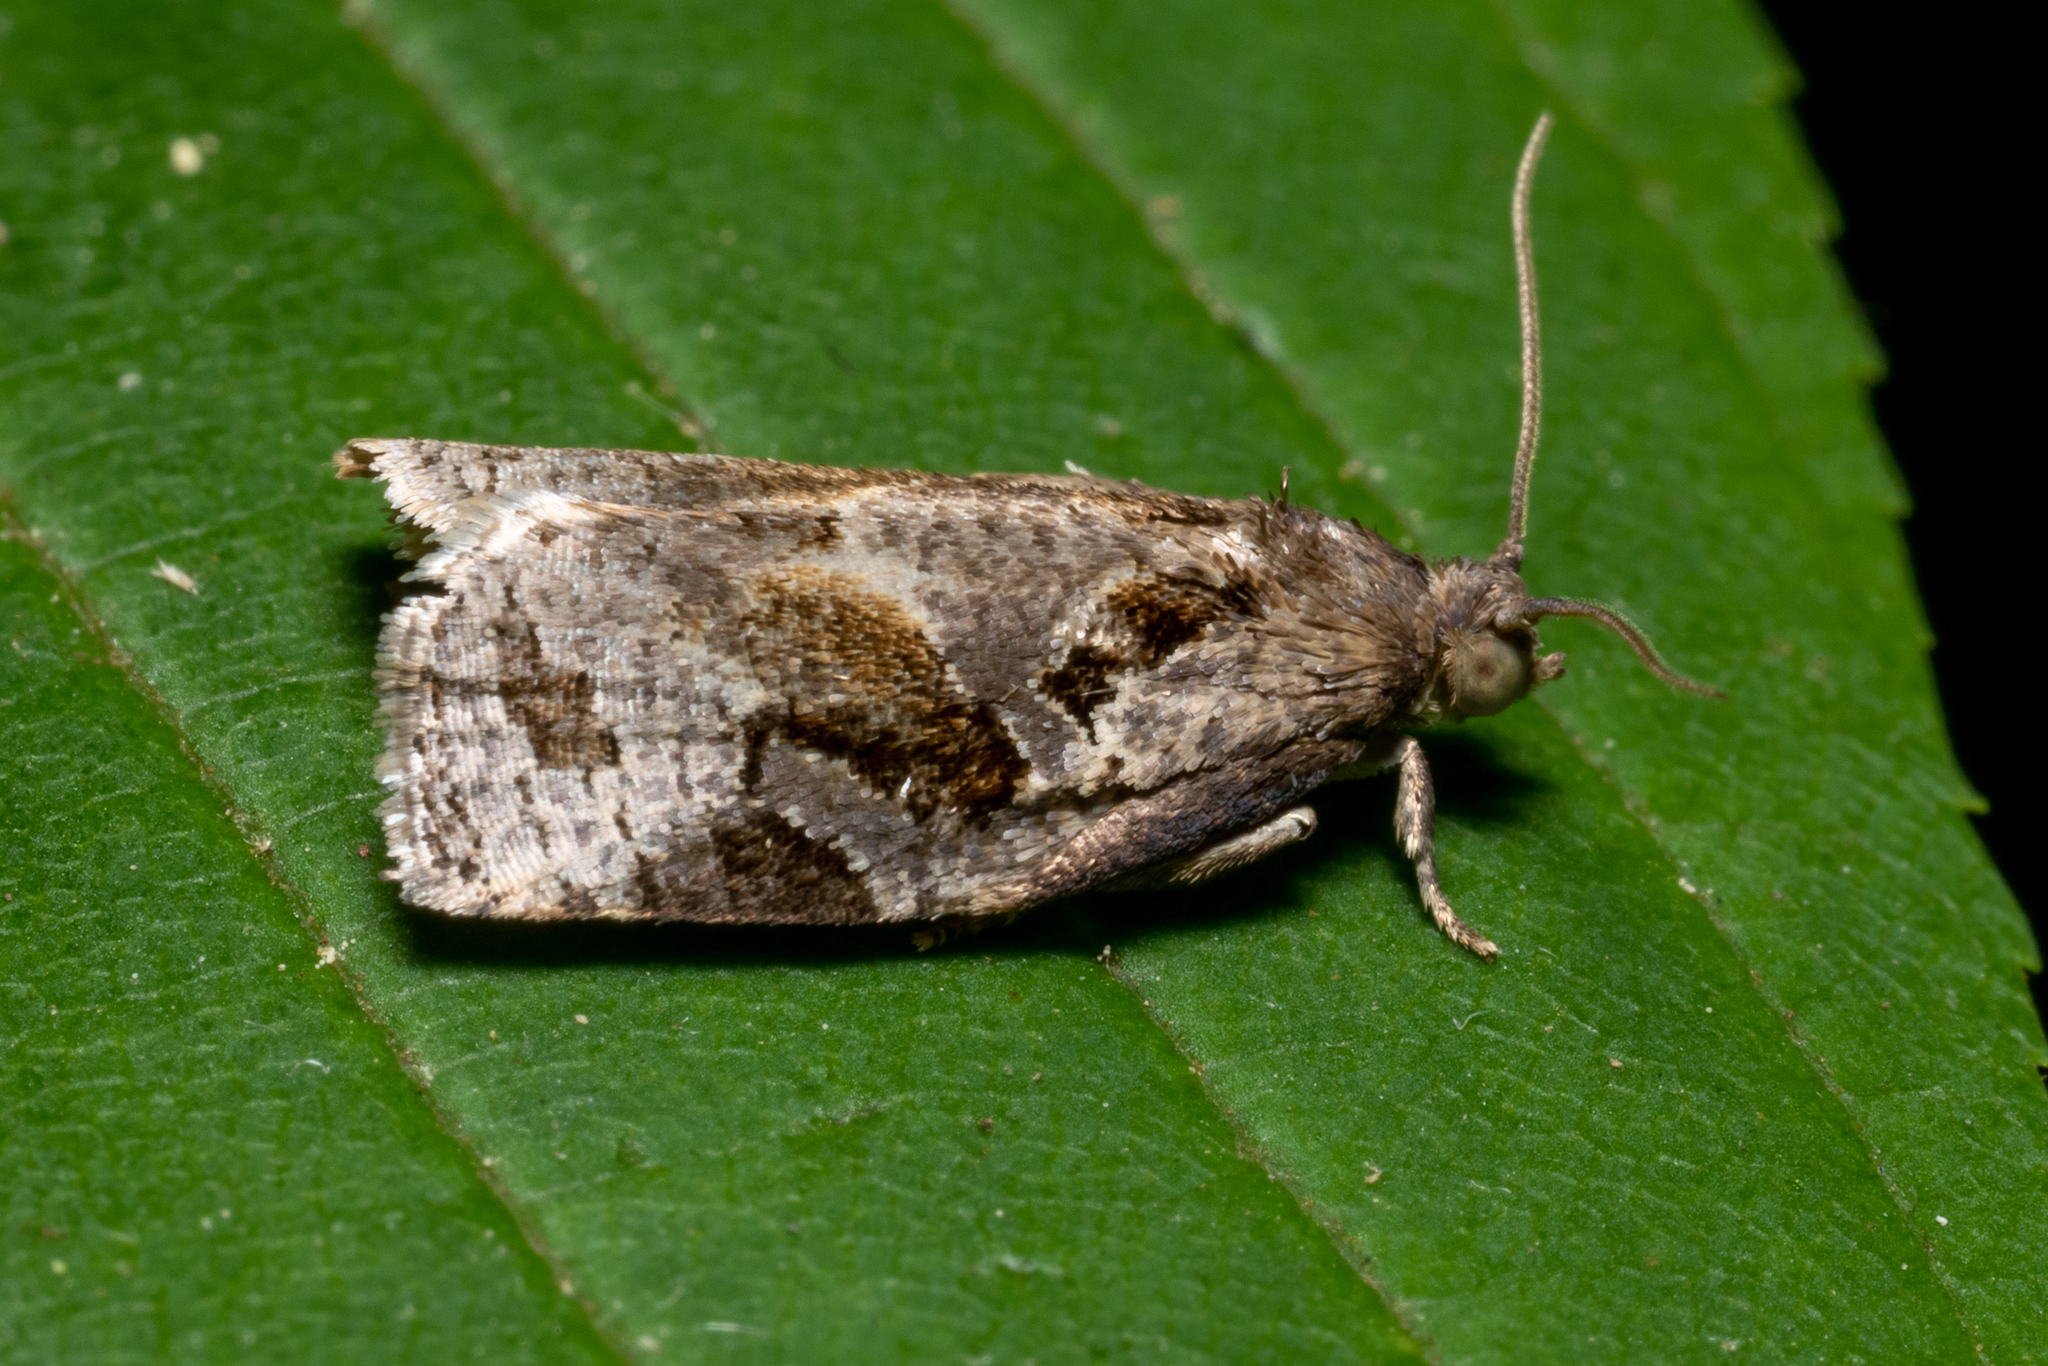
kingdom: Animalia
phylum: Arthropoda
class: Insecta
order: Lepidoptera
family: Tortricidae
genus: Archips
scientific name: Archips grisea
